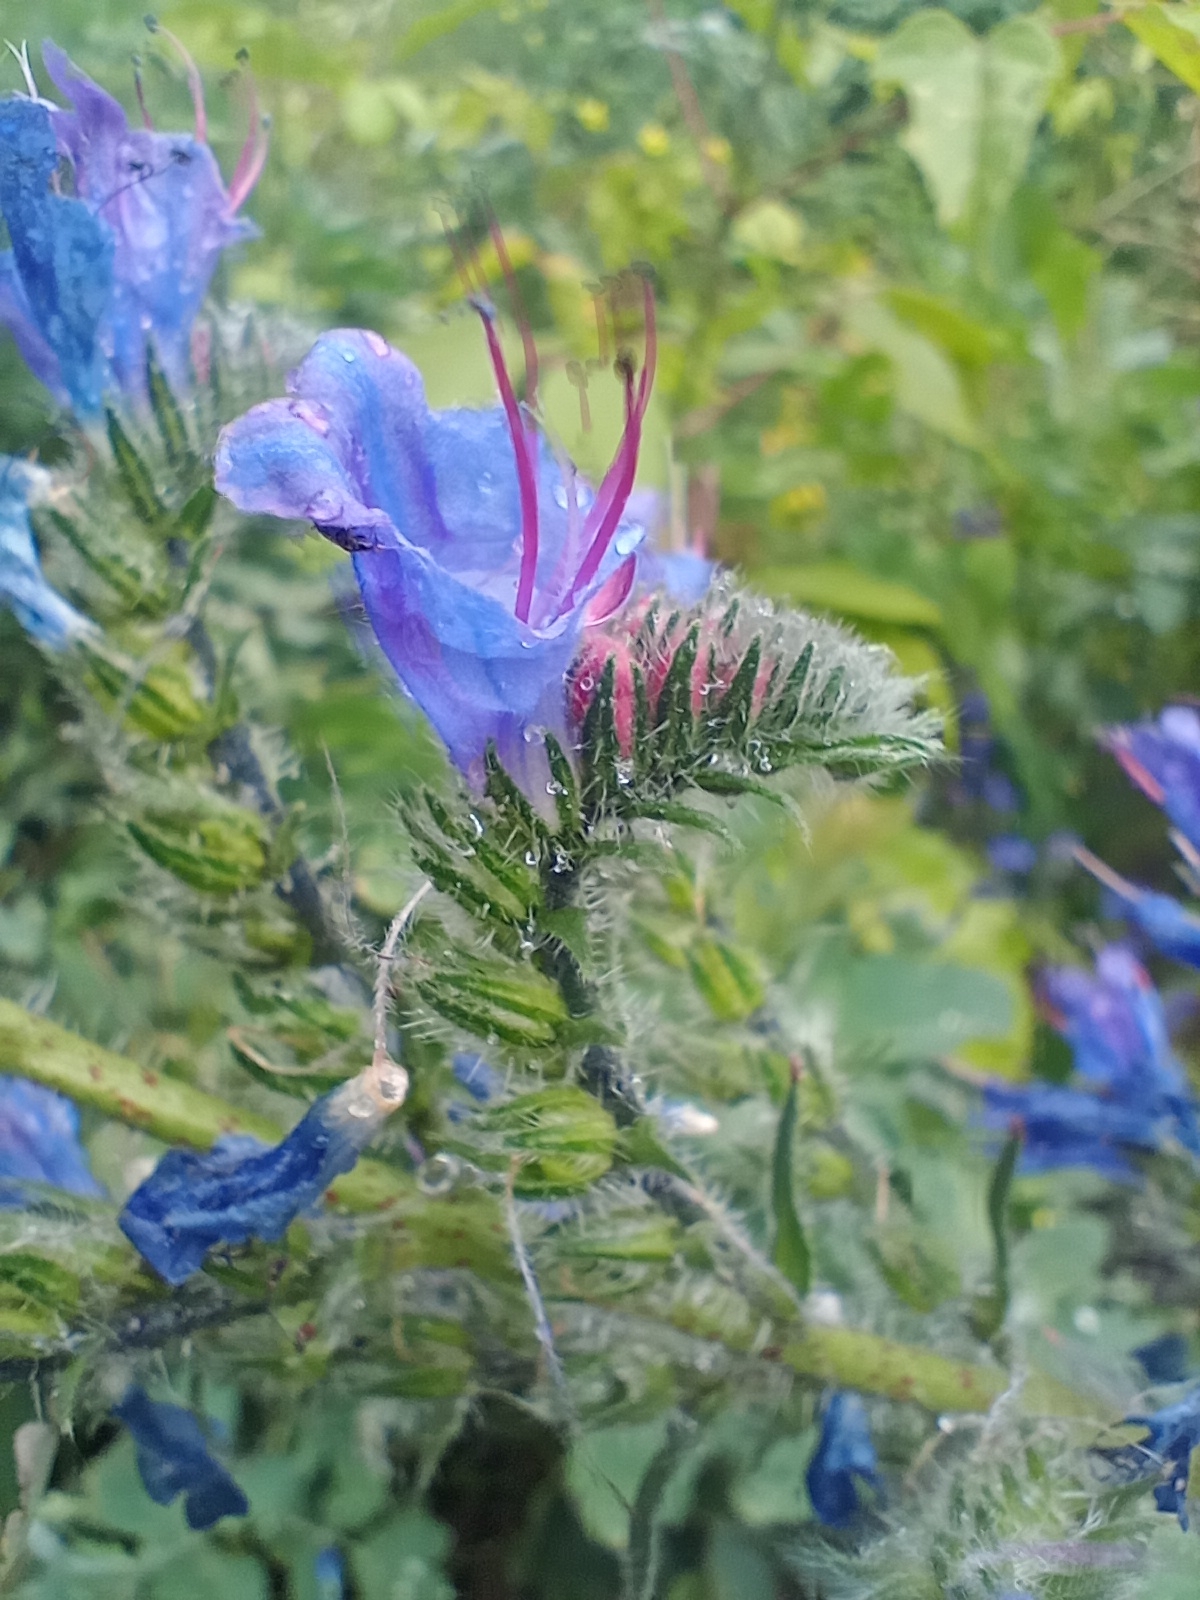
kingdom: Plantae
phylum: Tracheophyta
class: Magnoliopsida
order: Boraginales
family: Boraginaceae
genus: Echium
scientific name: Echium vulgare
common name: Common viper's bugloss
